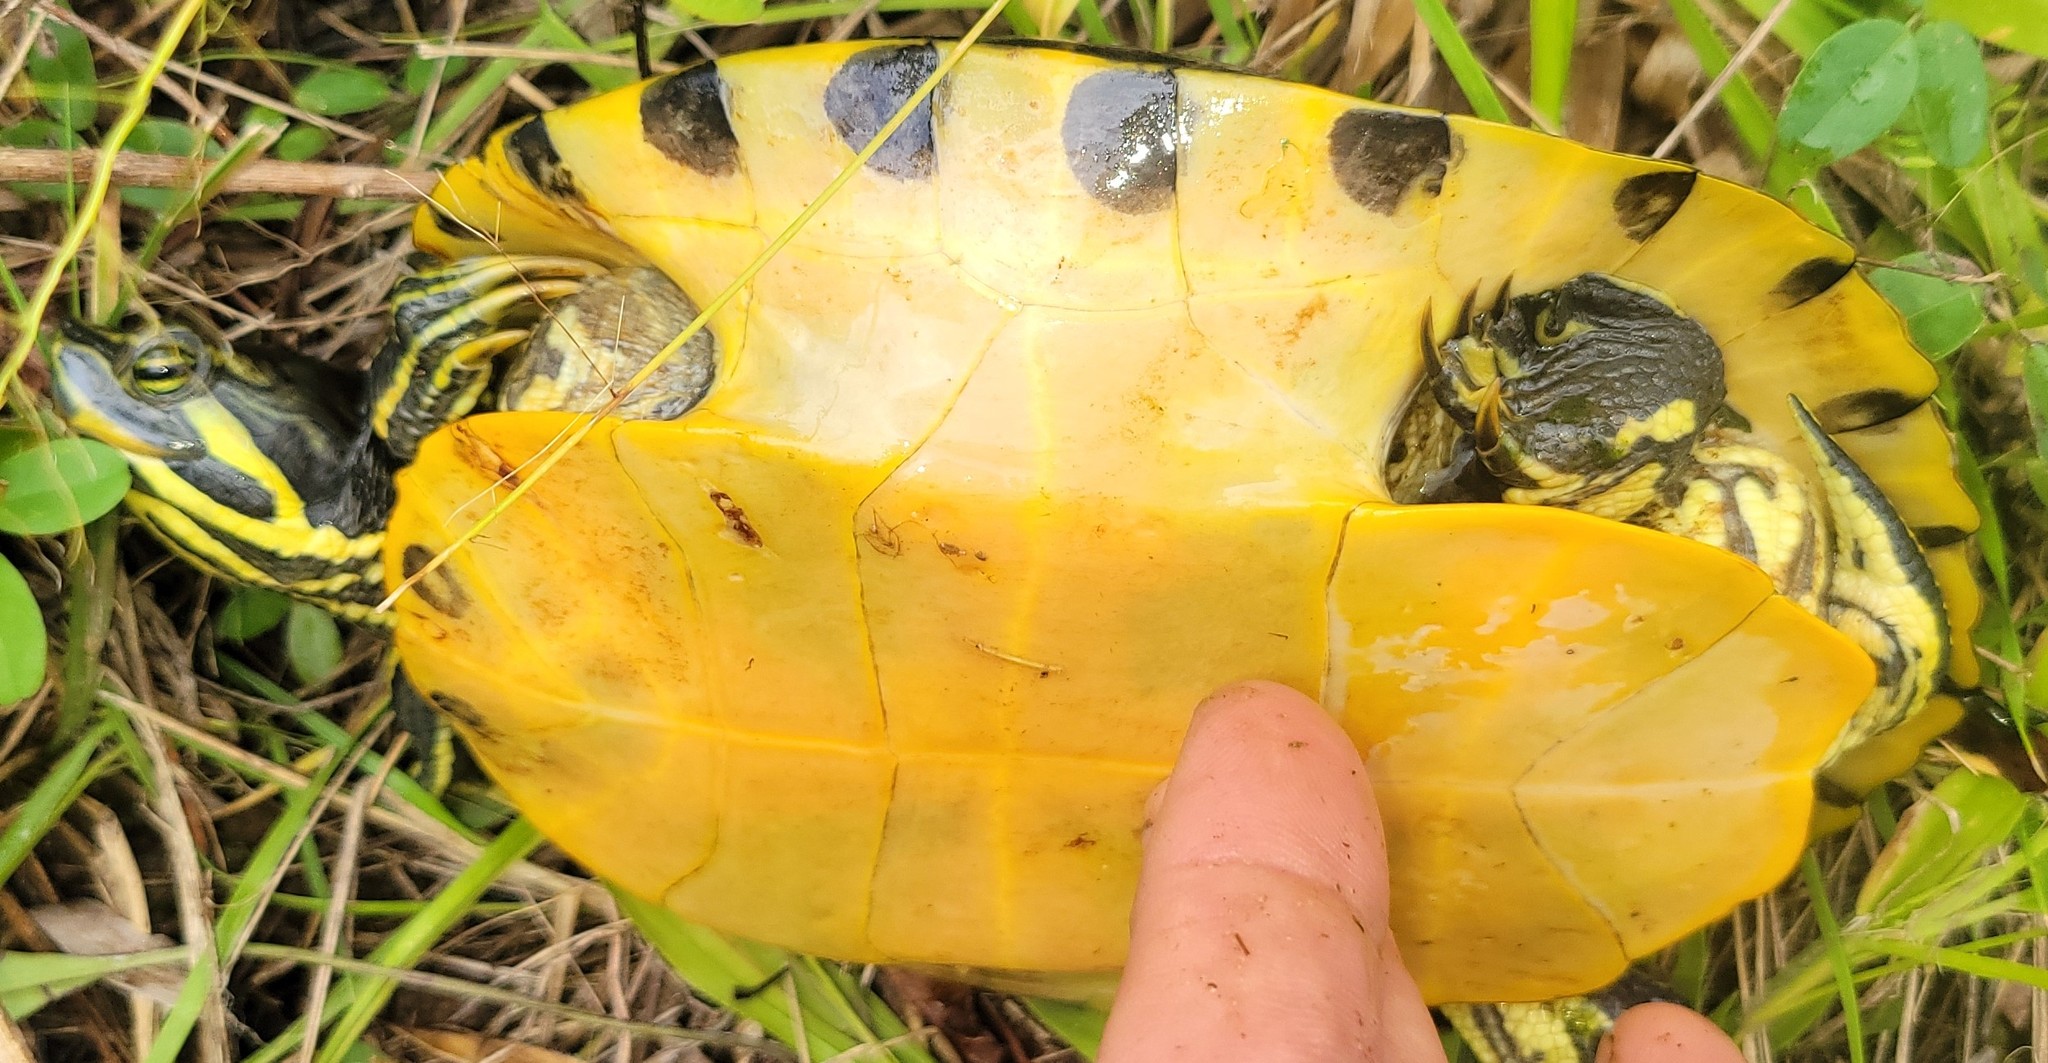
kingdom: Animalia
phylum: Chordata
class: Testudines
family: Emydidae
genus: Trachemys
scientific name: Trachemys scripta
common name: Slider
